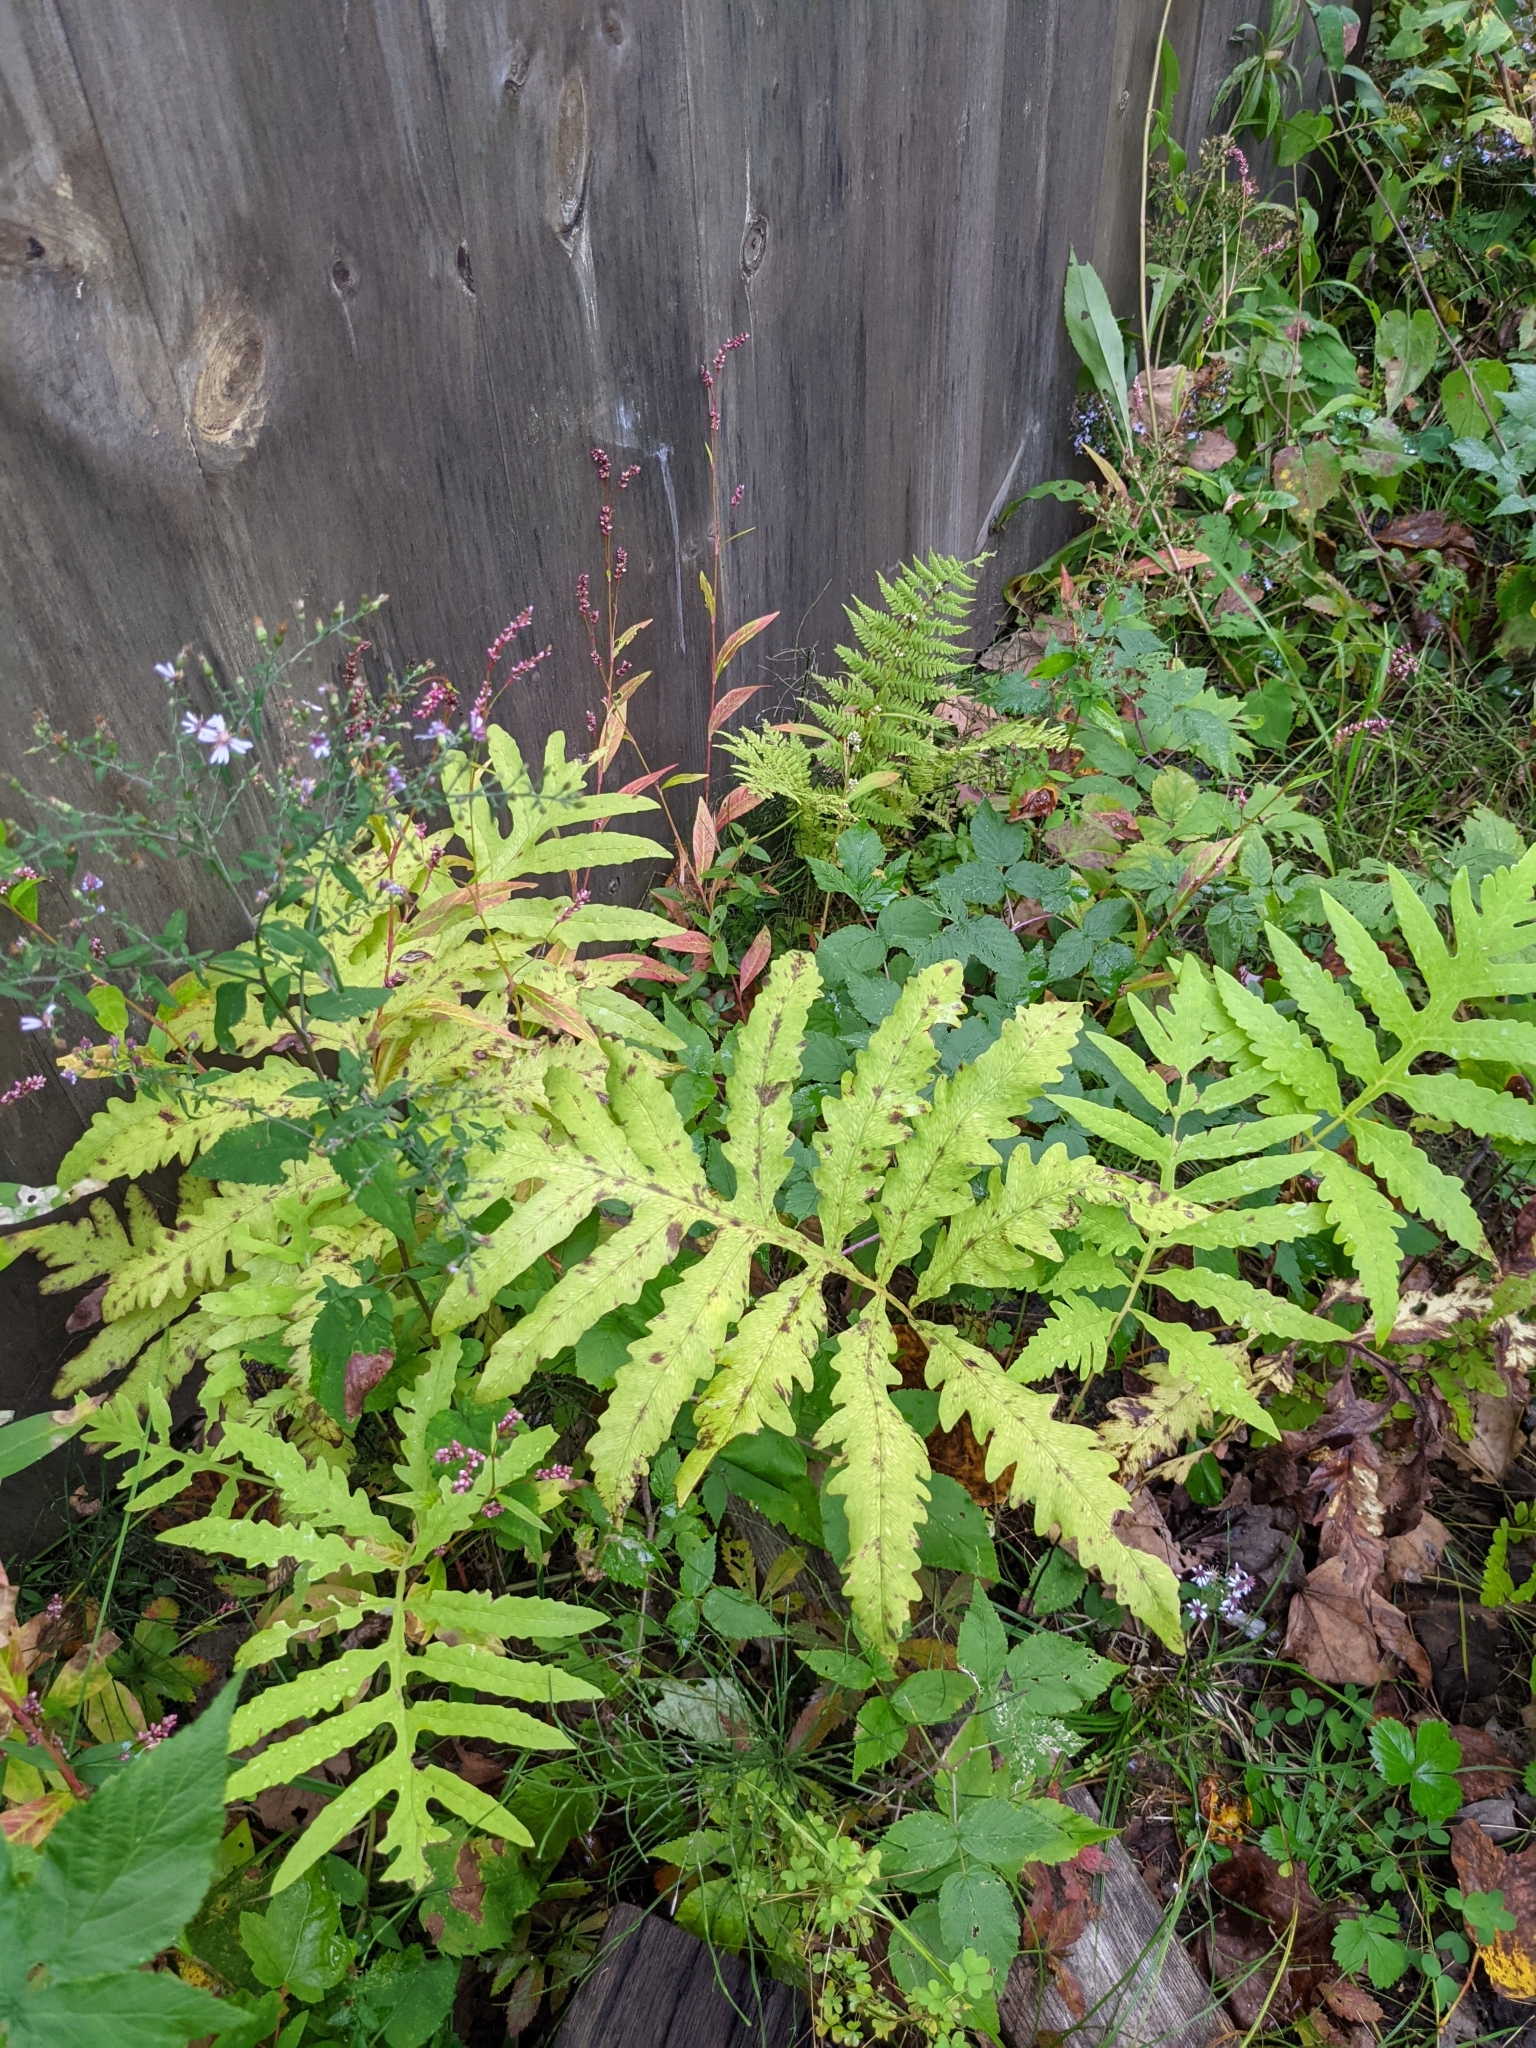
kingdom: Plantae
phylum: Tracheophyta
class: Polypodiopsida
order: Polypodiales
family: Onocleaceae
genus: Onoclea
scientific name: Onoclea sensibilis
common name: Sensitive fern
